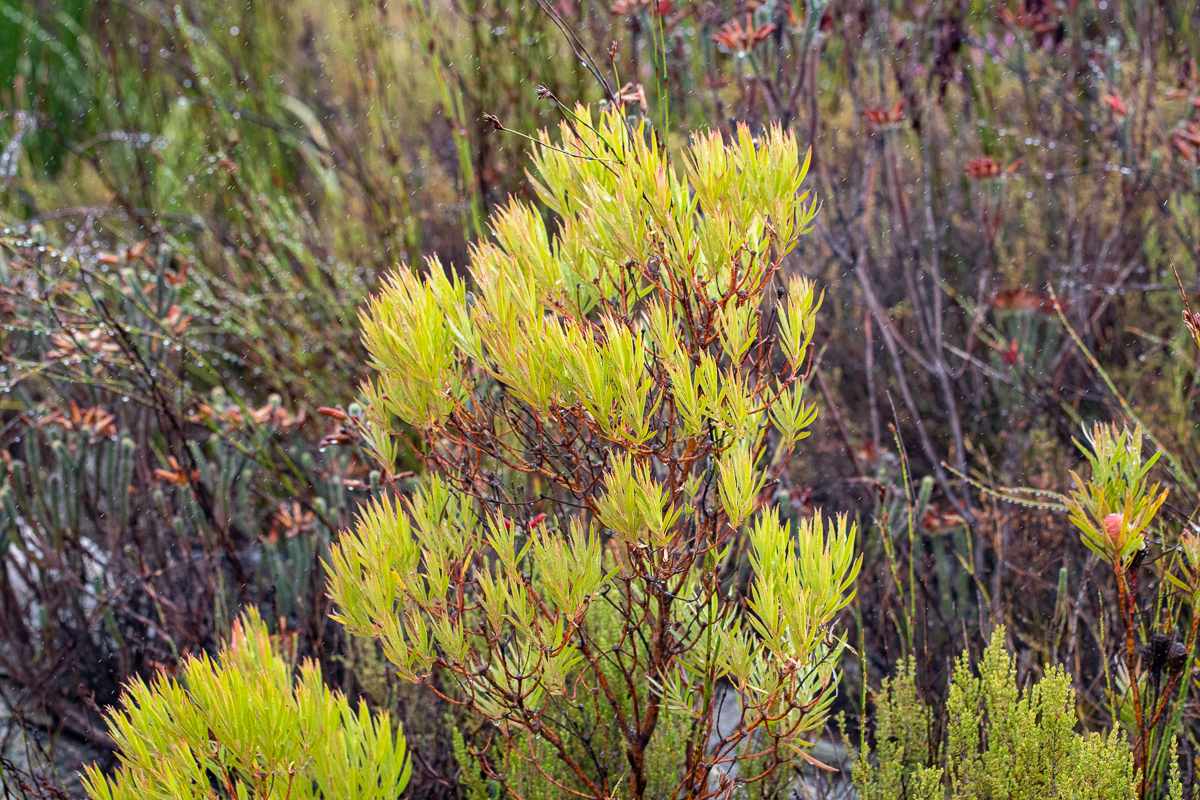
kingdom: Plantae
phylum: Tracheophyta
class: Magnoliopsida
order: Proteales
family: Proteaceae
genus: Leucadendron
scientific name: Leucadendron xanthoconus
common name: Sickle-leaf conebush
